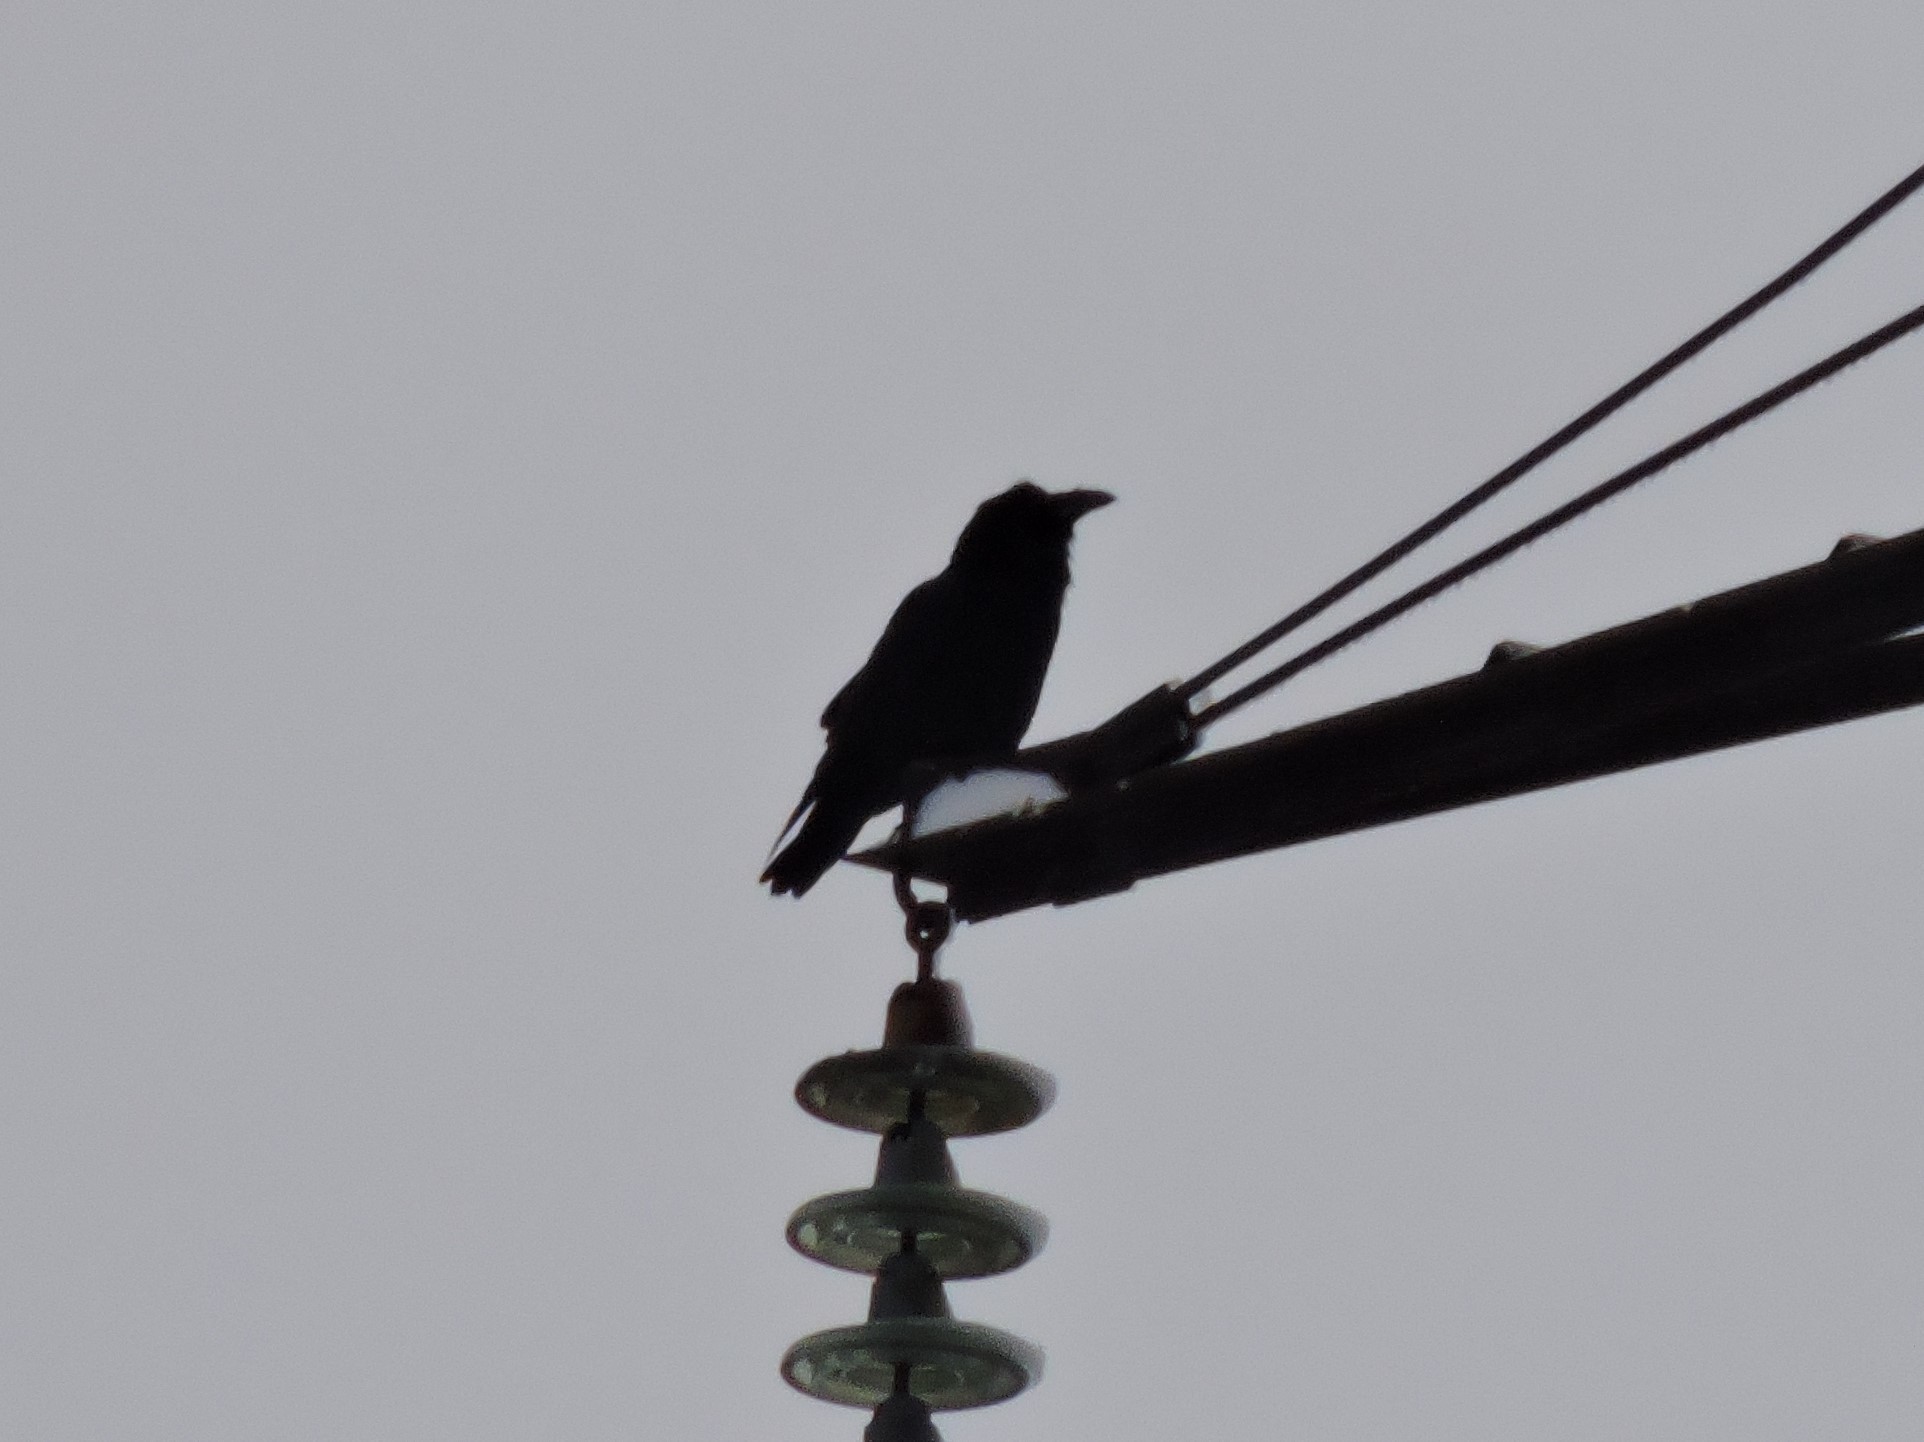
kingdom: Animalia
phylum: Chordata
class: Aves
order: Passeriformes
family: Corvidae
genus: Corvus
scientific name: Corvus corax
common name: Common raven
